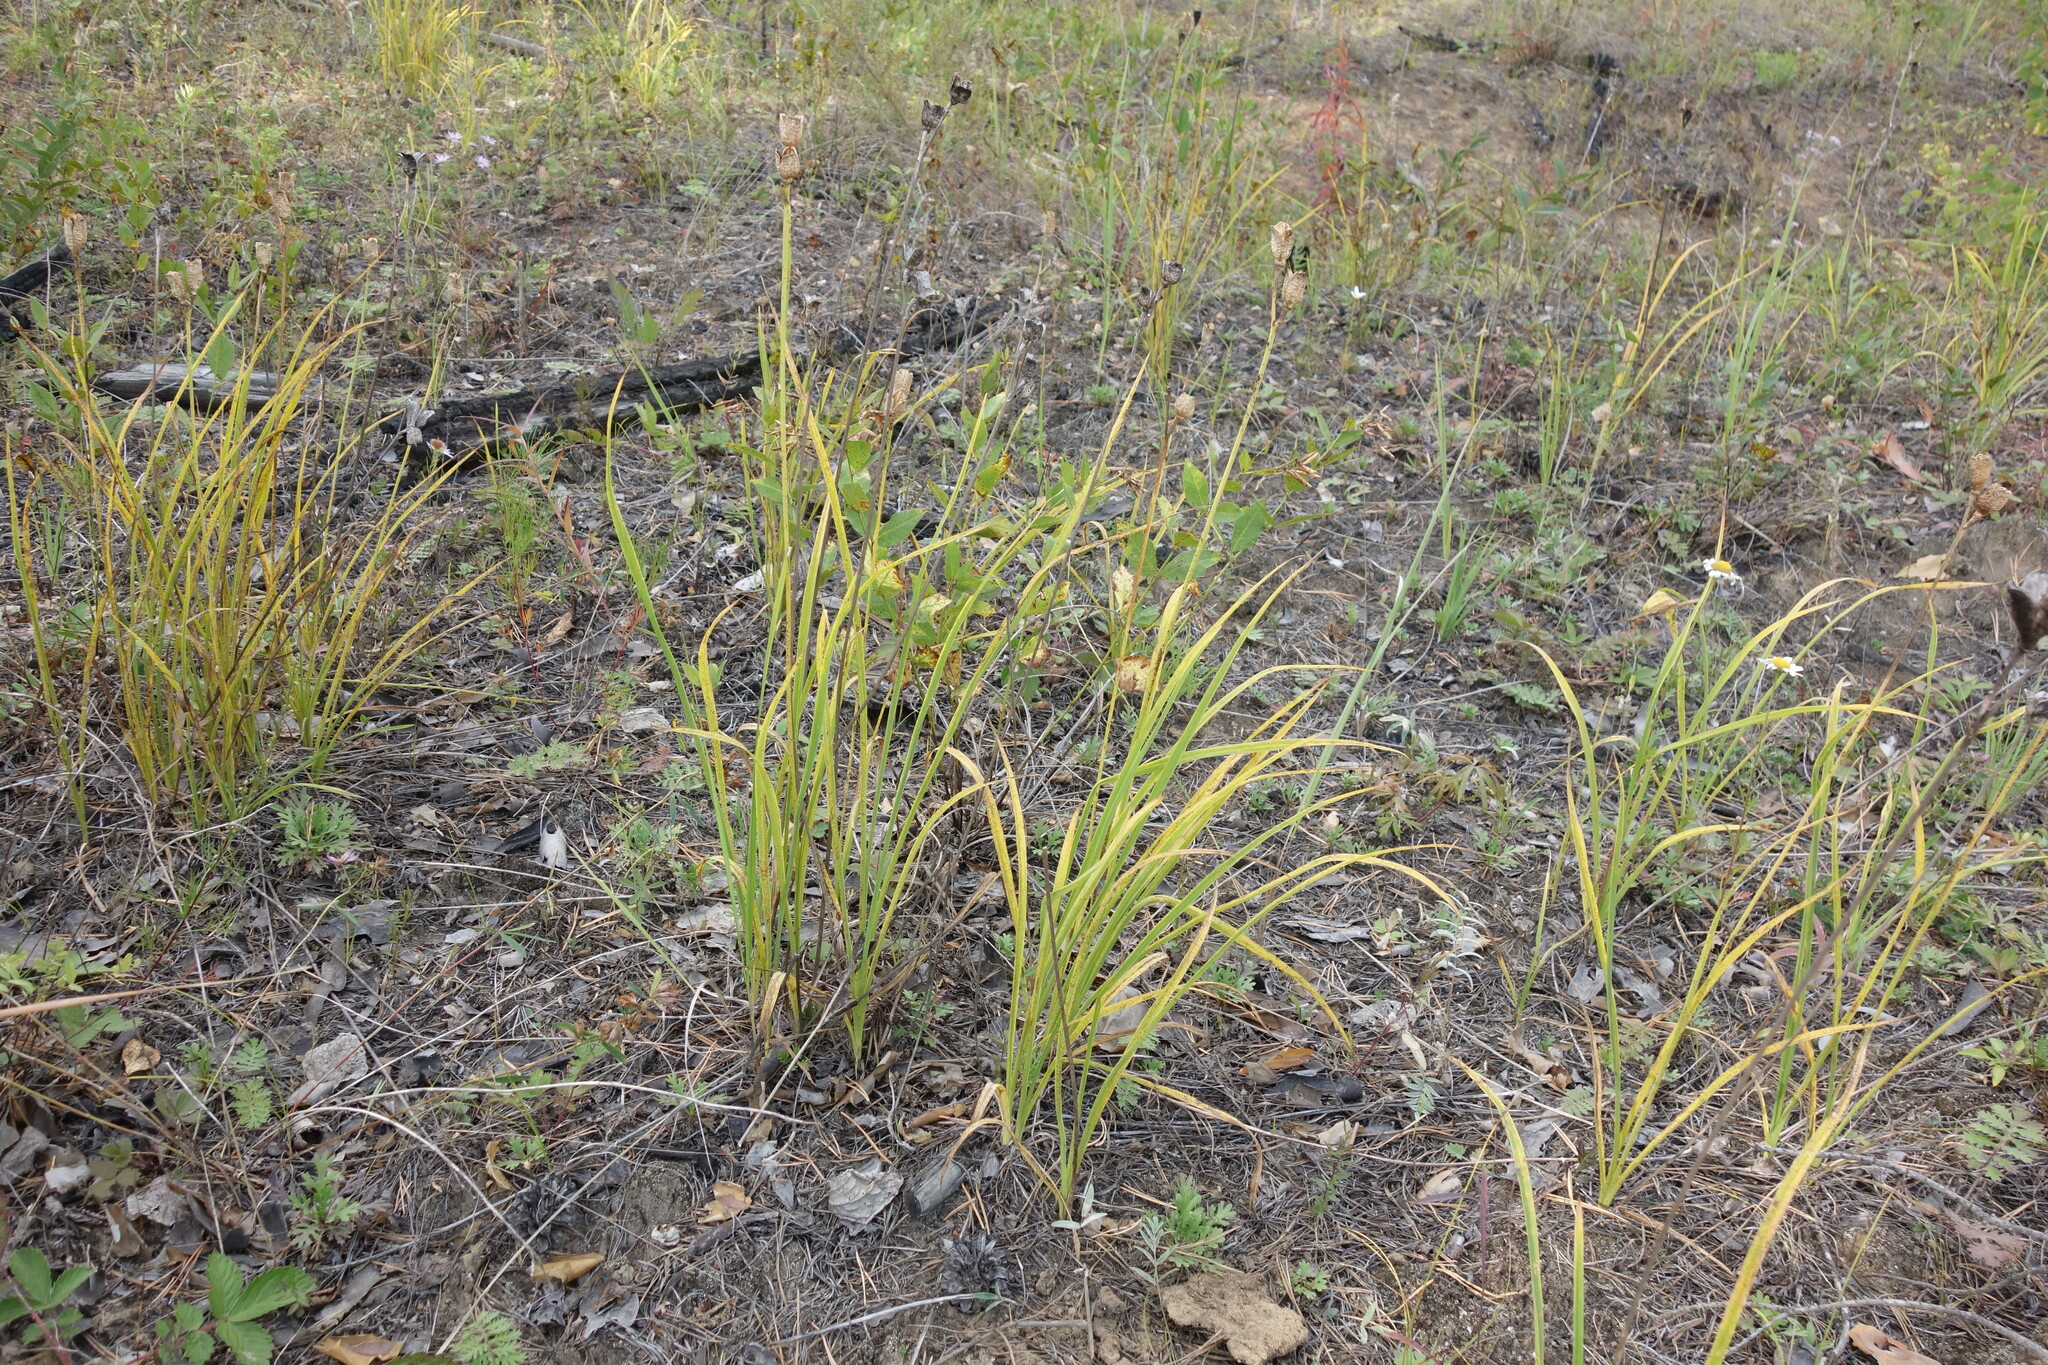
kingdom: Plantae
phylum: Tracheophyta
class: Liliopsida
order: Asparagales
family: Asphodelaceae
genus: Hemerocallis
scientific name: Hemerocallis minor
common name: Small daylily
